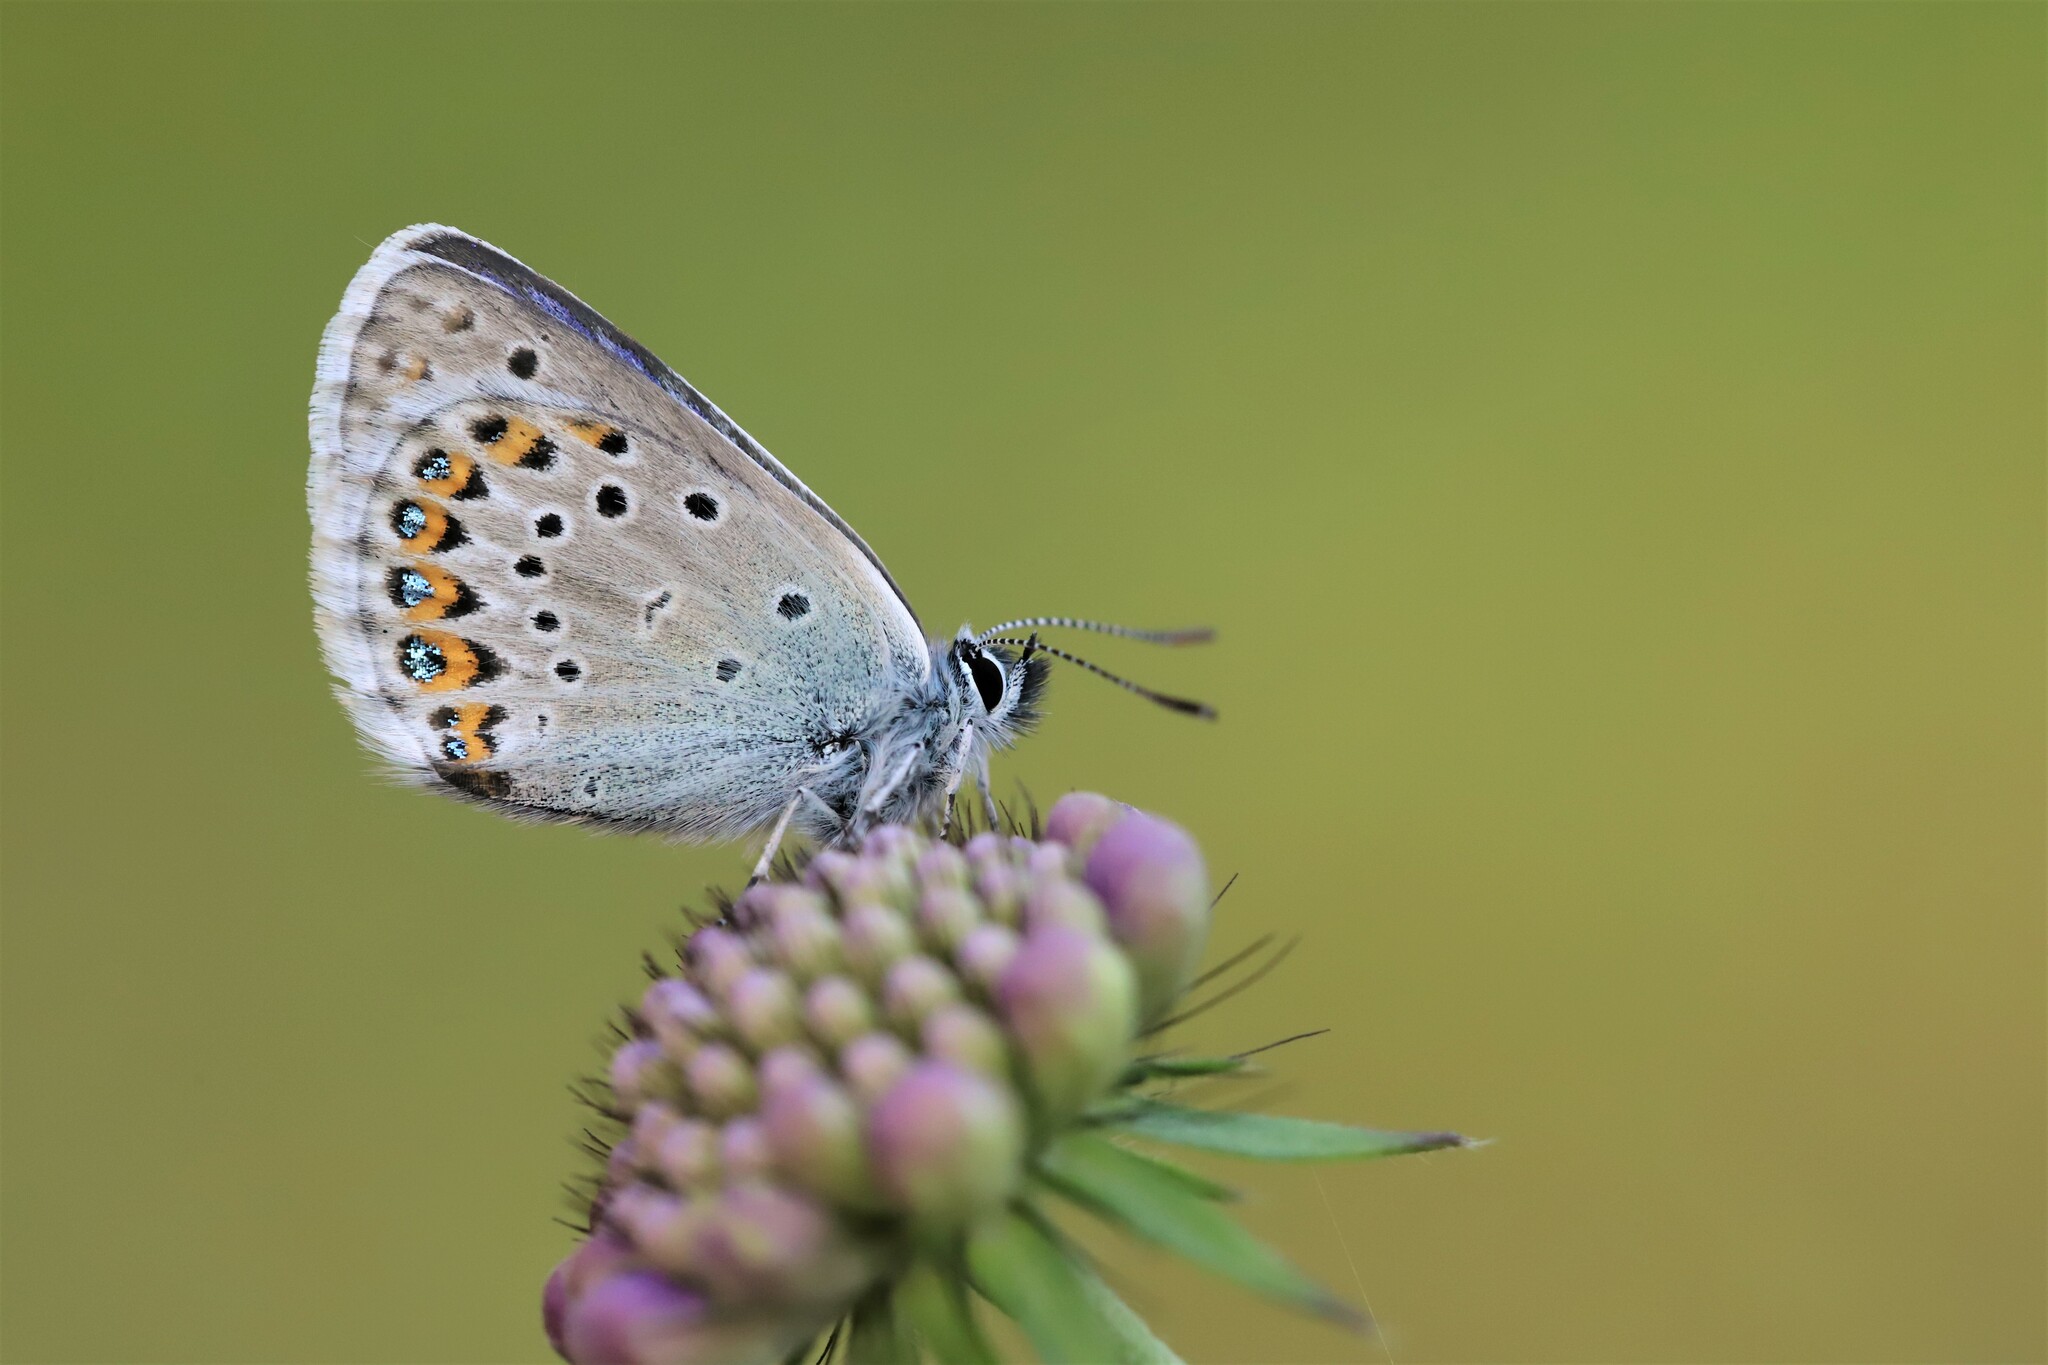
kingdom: Animalia
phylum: Arthropoda
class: Insecta
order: Lepidoptera
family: Lycaenidae
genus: Plebejus
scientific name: Plebejus argyrognomon
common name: Reverdin's blue
